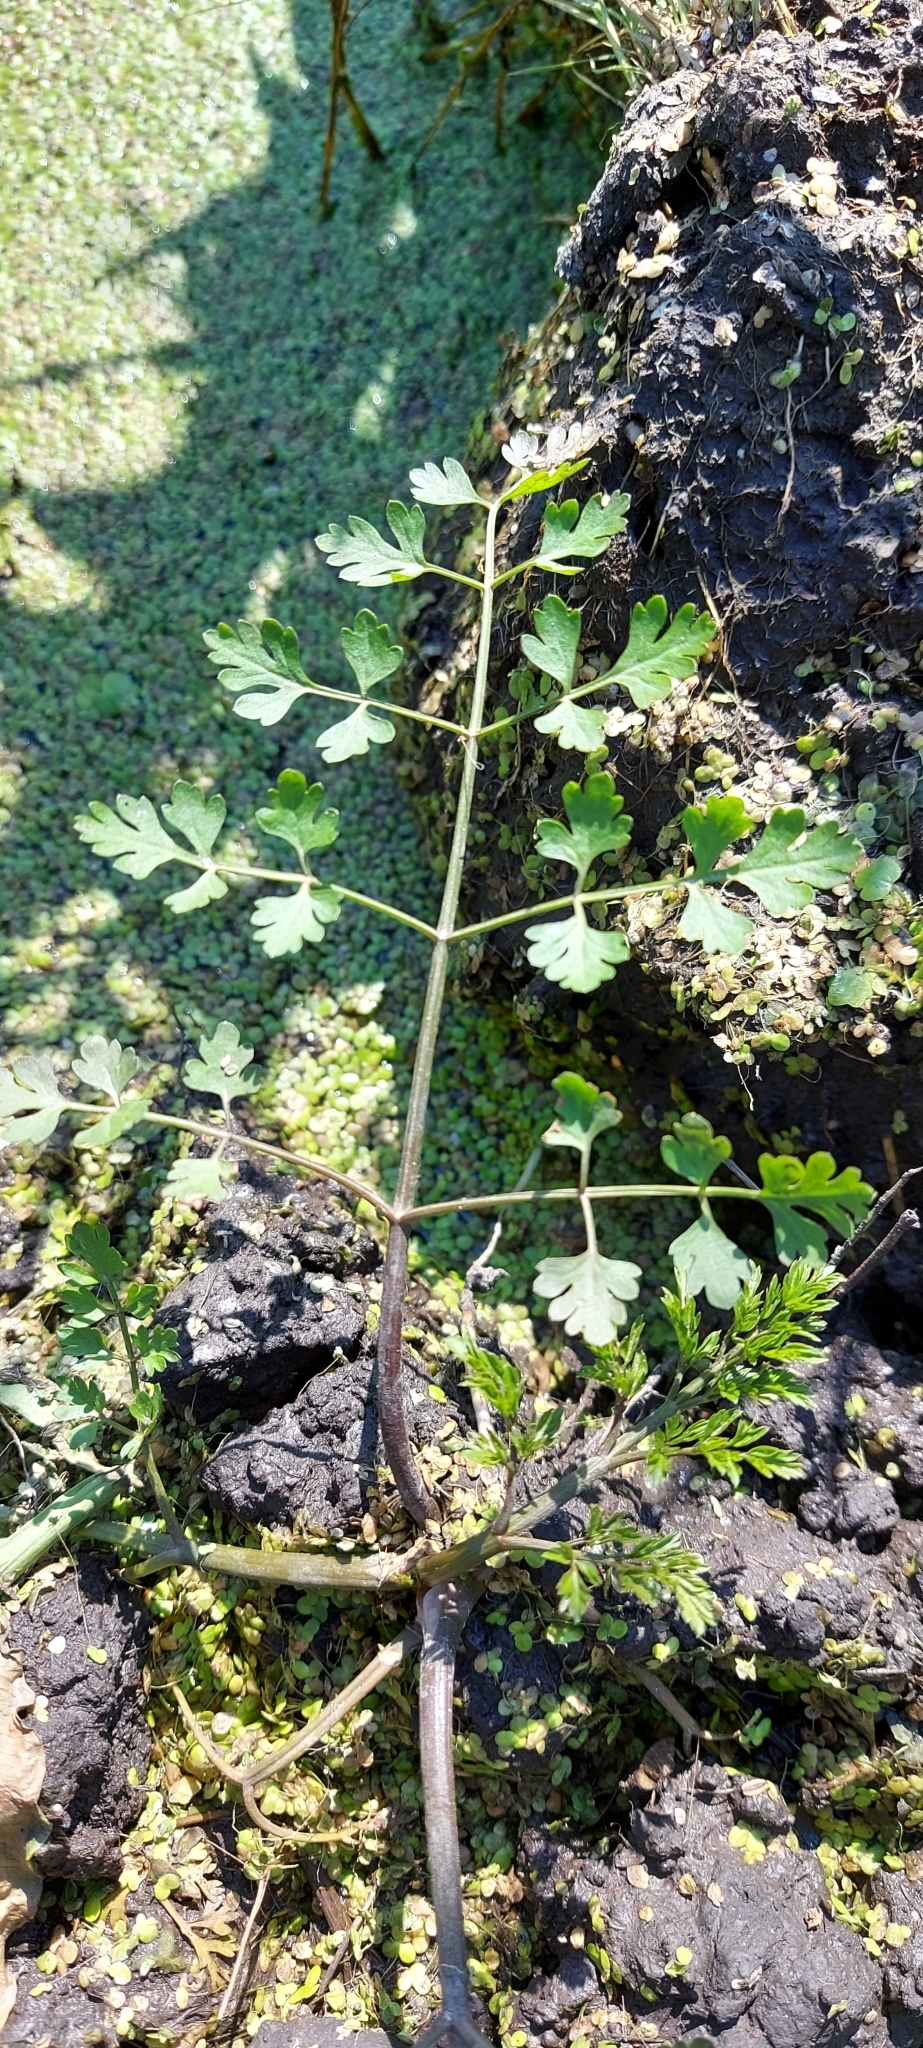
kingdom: Plantae
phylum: Tracheophyta
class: Magnoliopsida
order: Apiales
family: Apiaceae
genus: Oenanthe
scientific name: Oenanthe aquatica
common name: Fine-leaved water-dropwort
